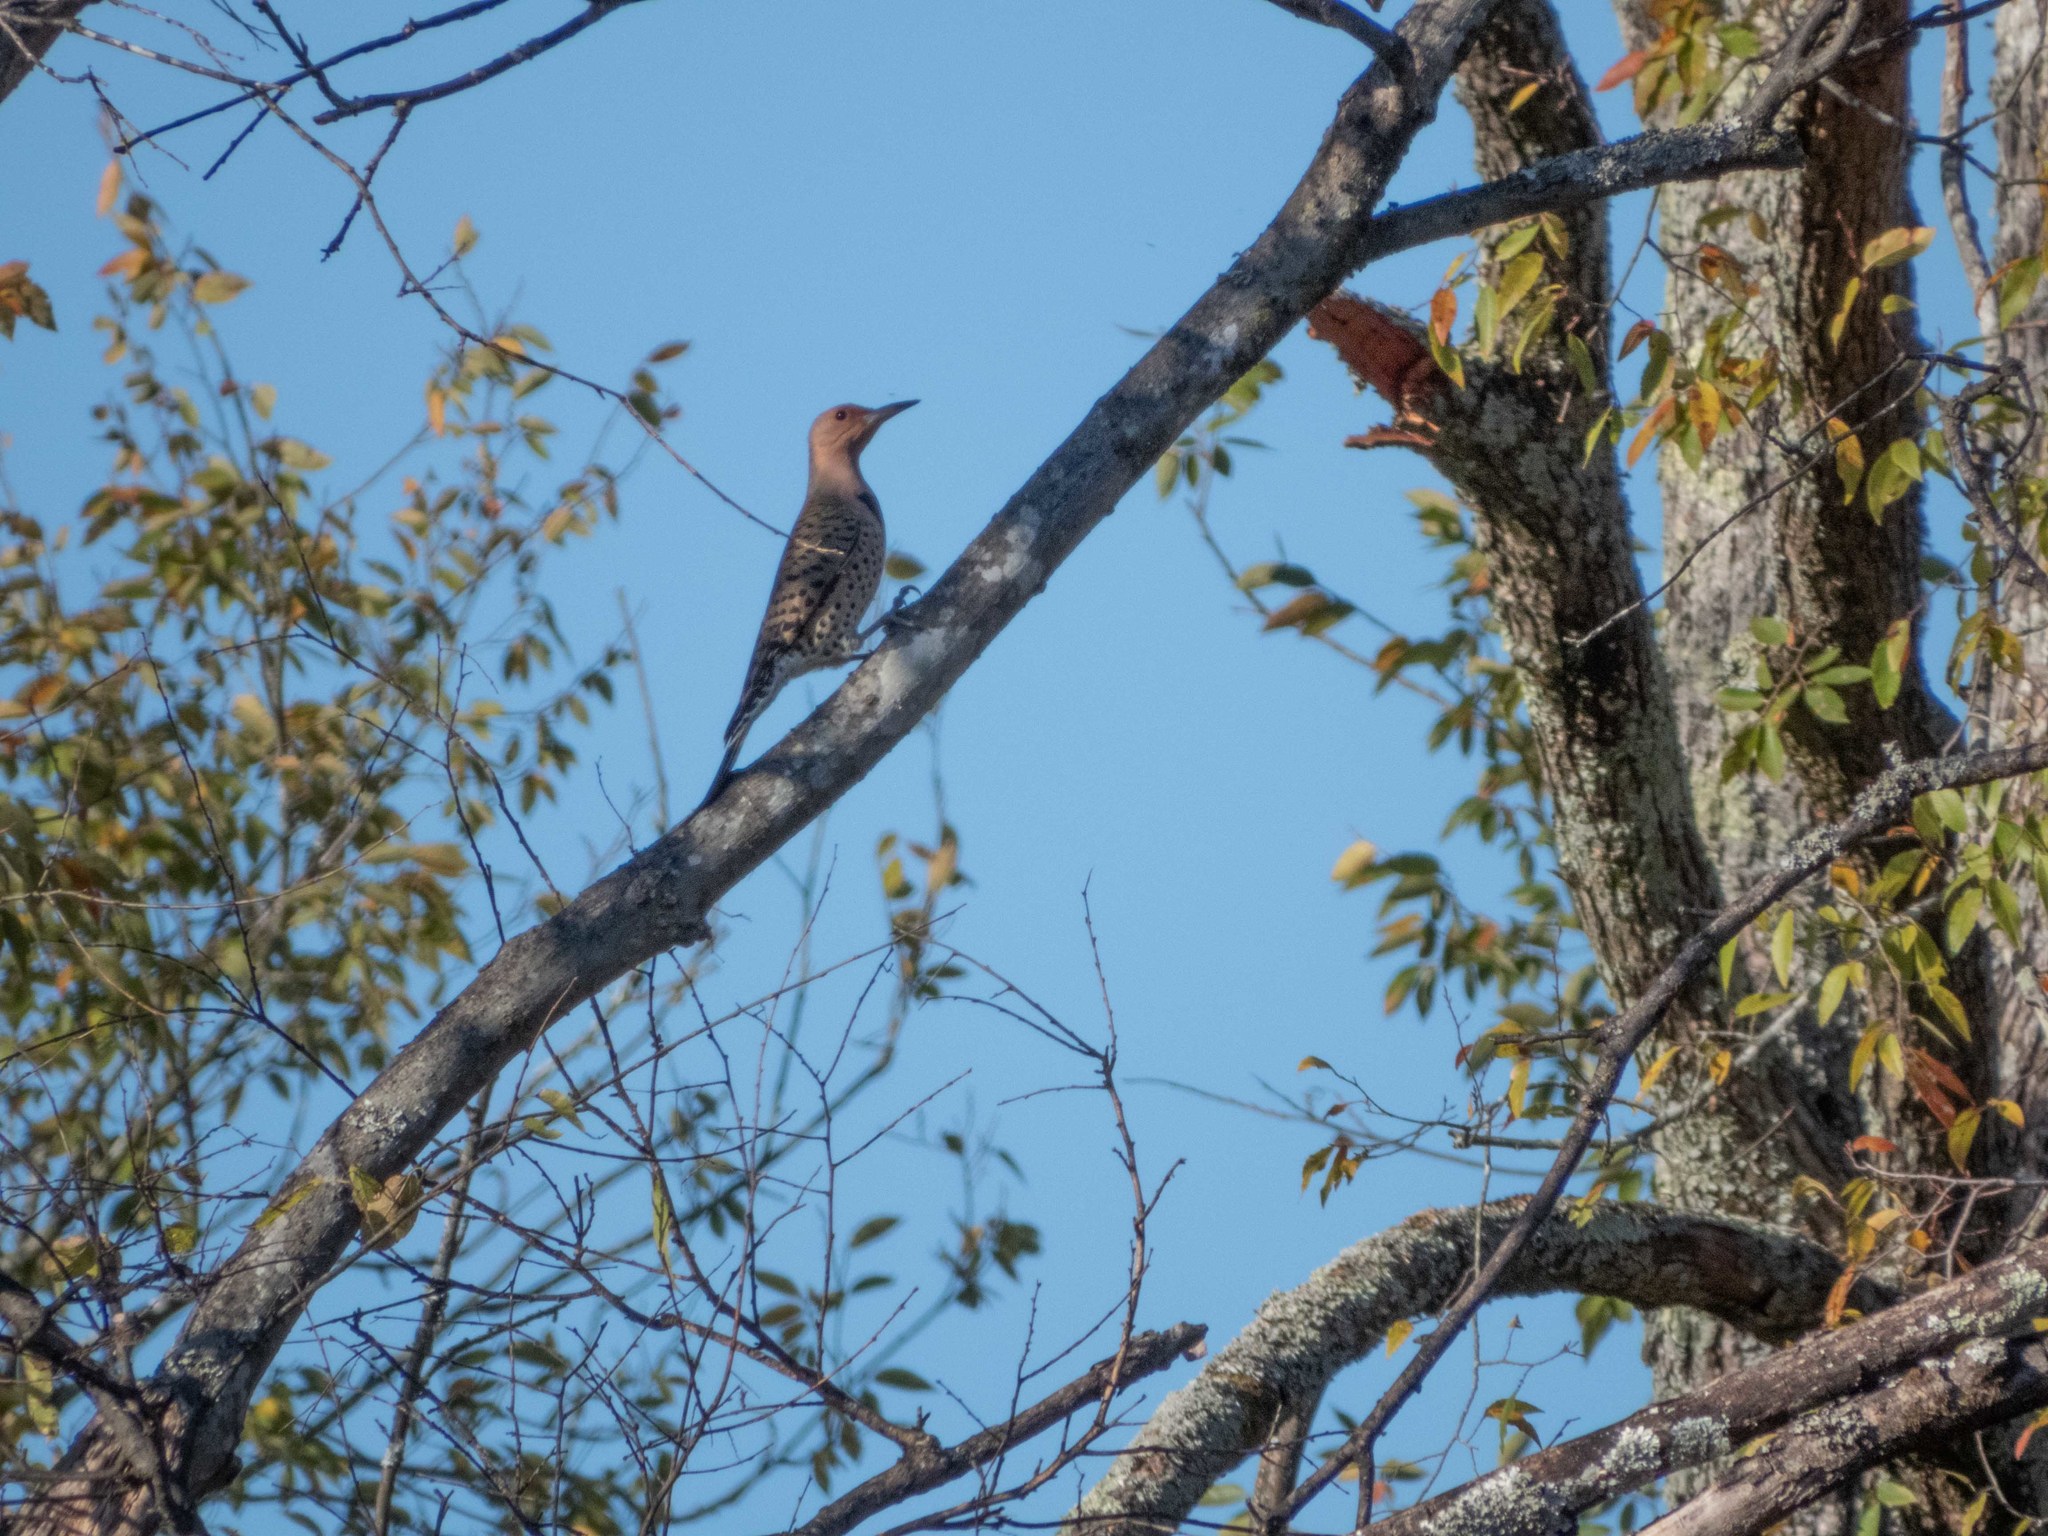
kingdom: Animalia
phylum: Chordata
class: Aves
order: Piciformes
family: Picidae
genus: Colaptes
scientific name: Colaptes auratus
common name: Northern flicker
